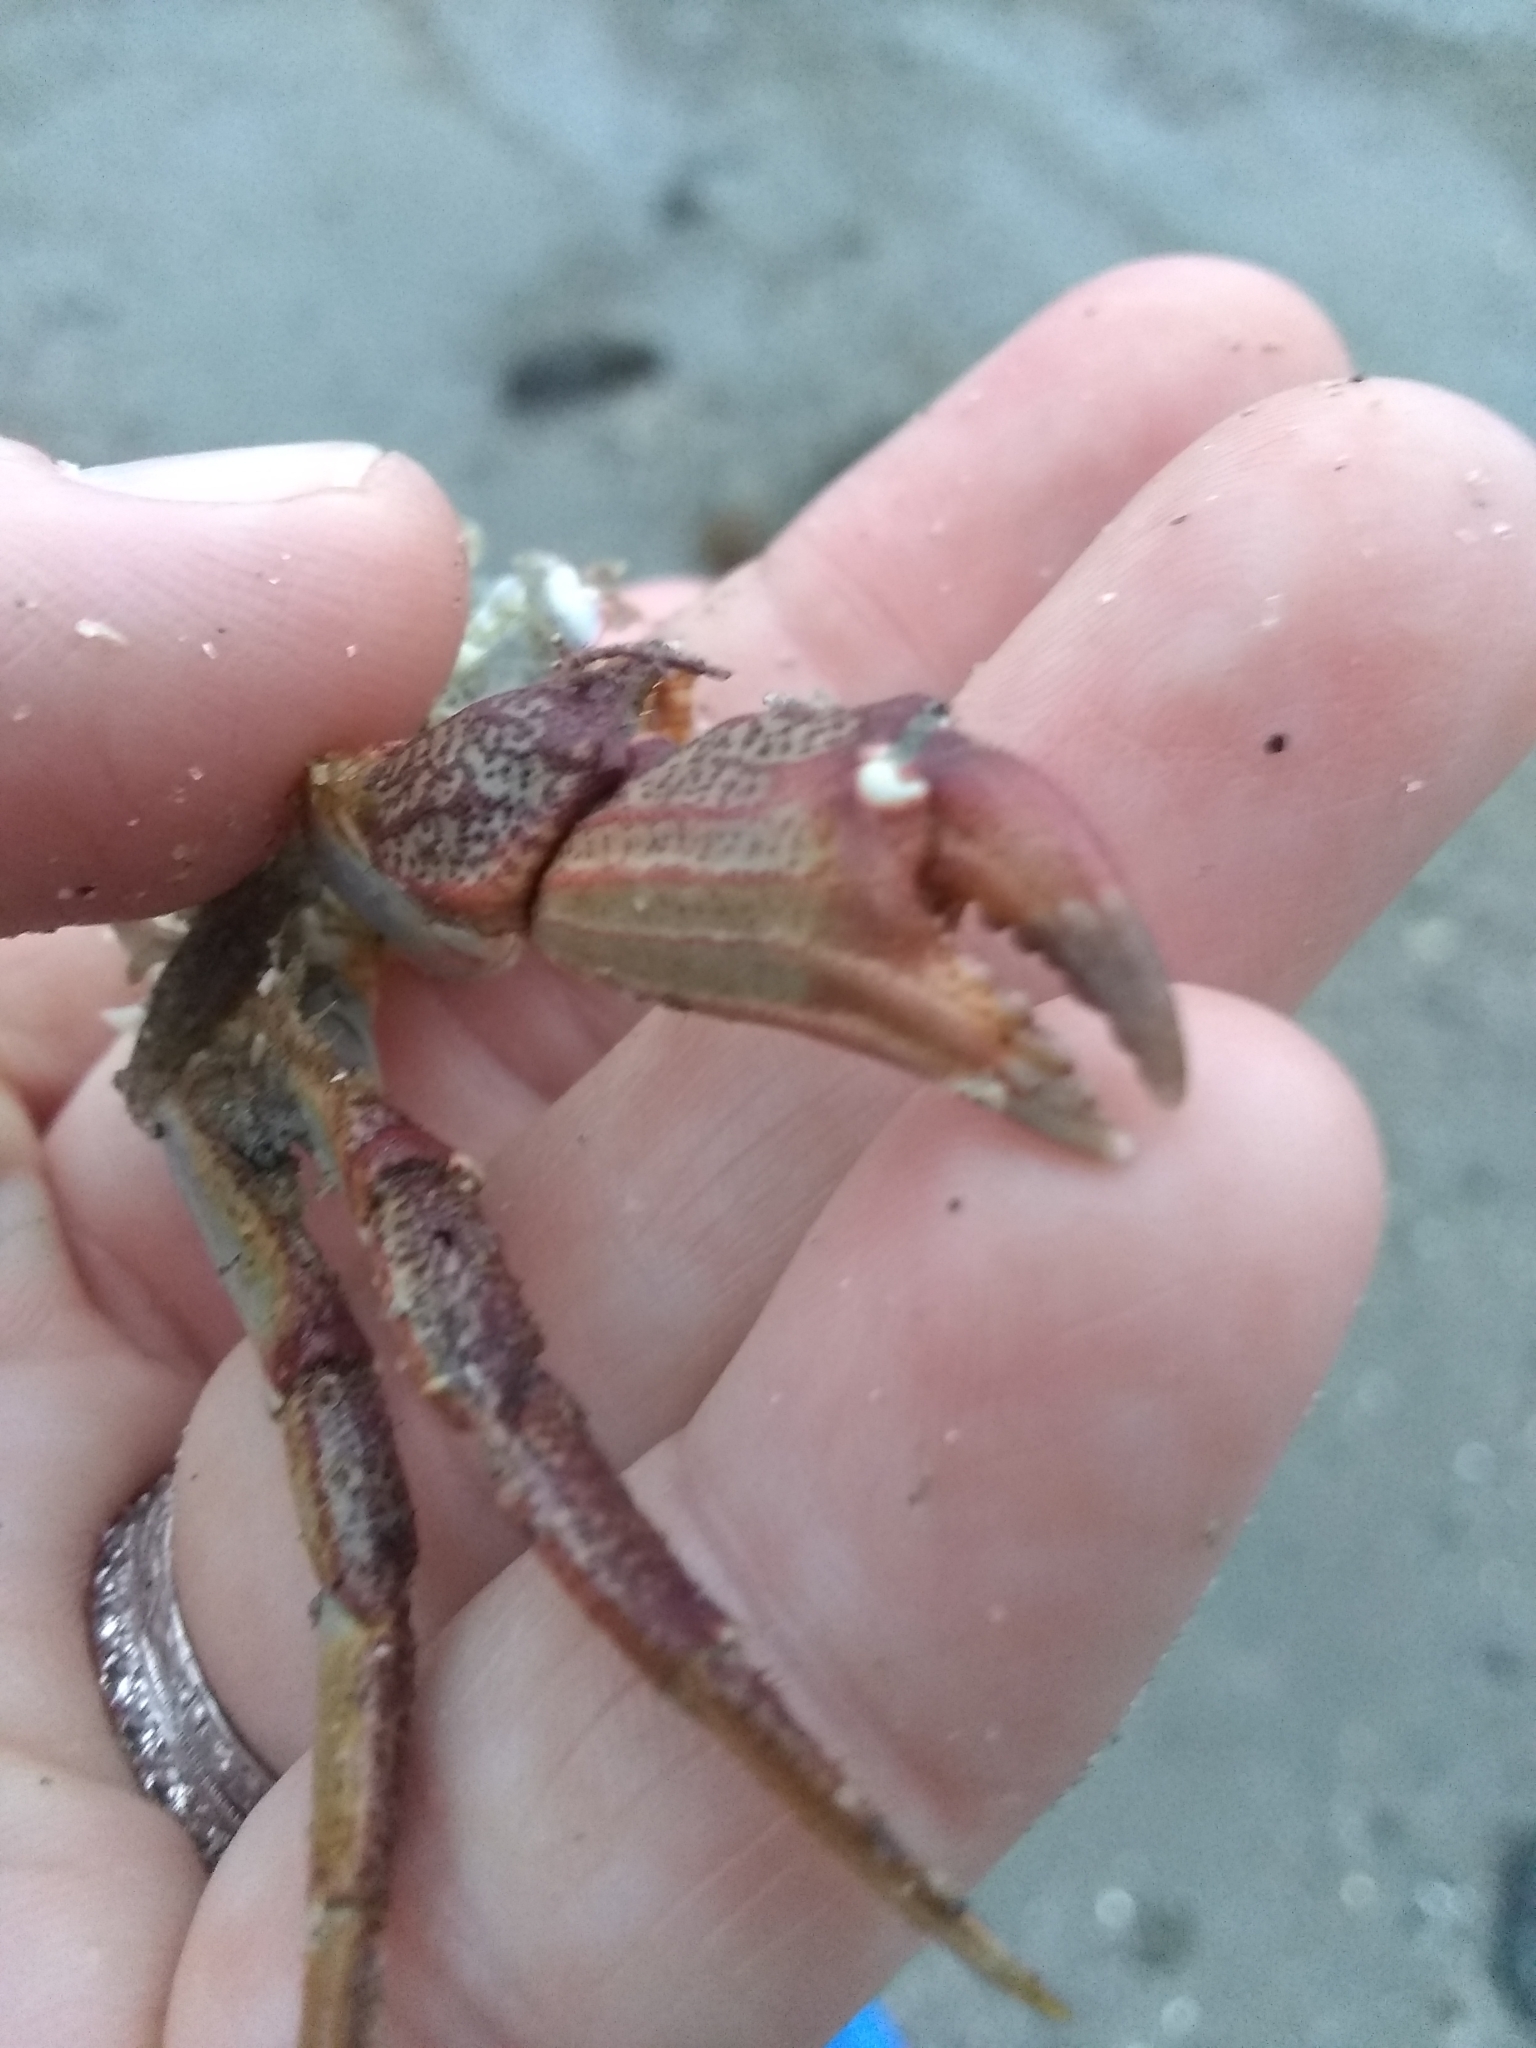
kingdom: Animalia
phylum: Arthropoda
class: Malacostraca
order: Decapoda
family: Cancridae
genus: Cancer
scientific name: Cancer irroratus
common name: Atlantic rock crab
